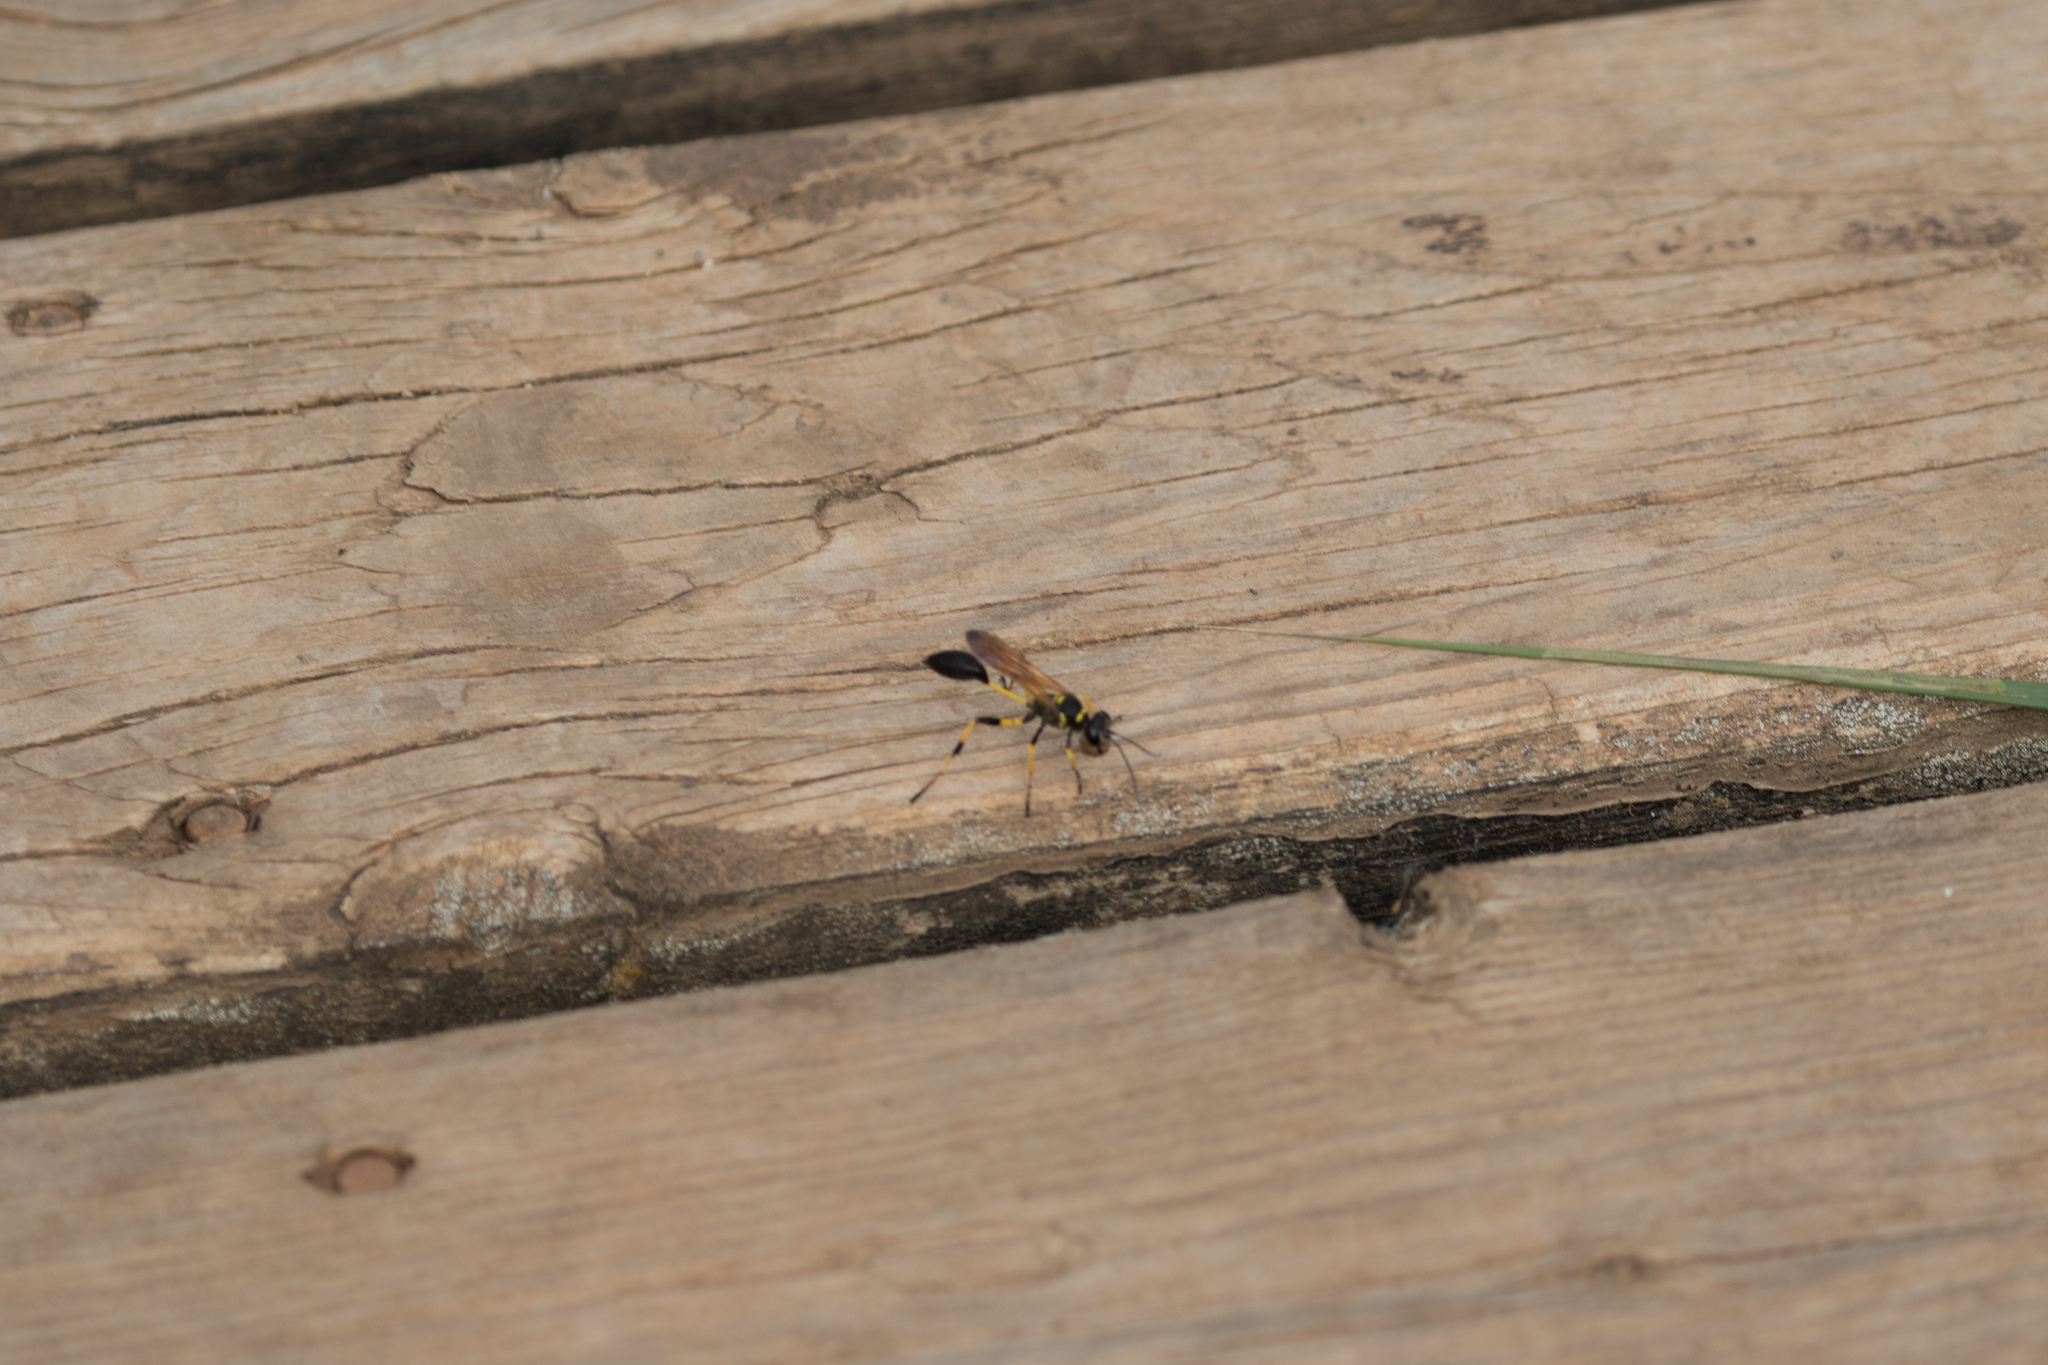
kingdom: Animalia
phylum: Arthropoda
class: Insecta
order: Hymenoptera
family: Sphecidae
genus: Sceliphron
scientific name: Sceliphron madraspatanum
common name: Mud dauber
